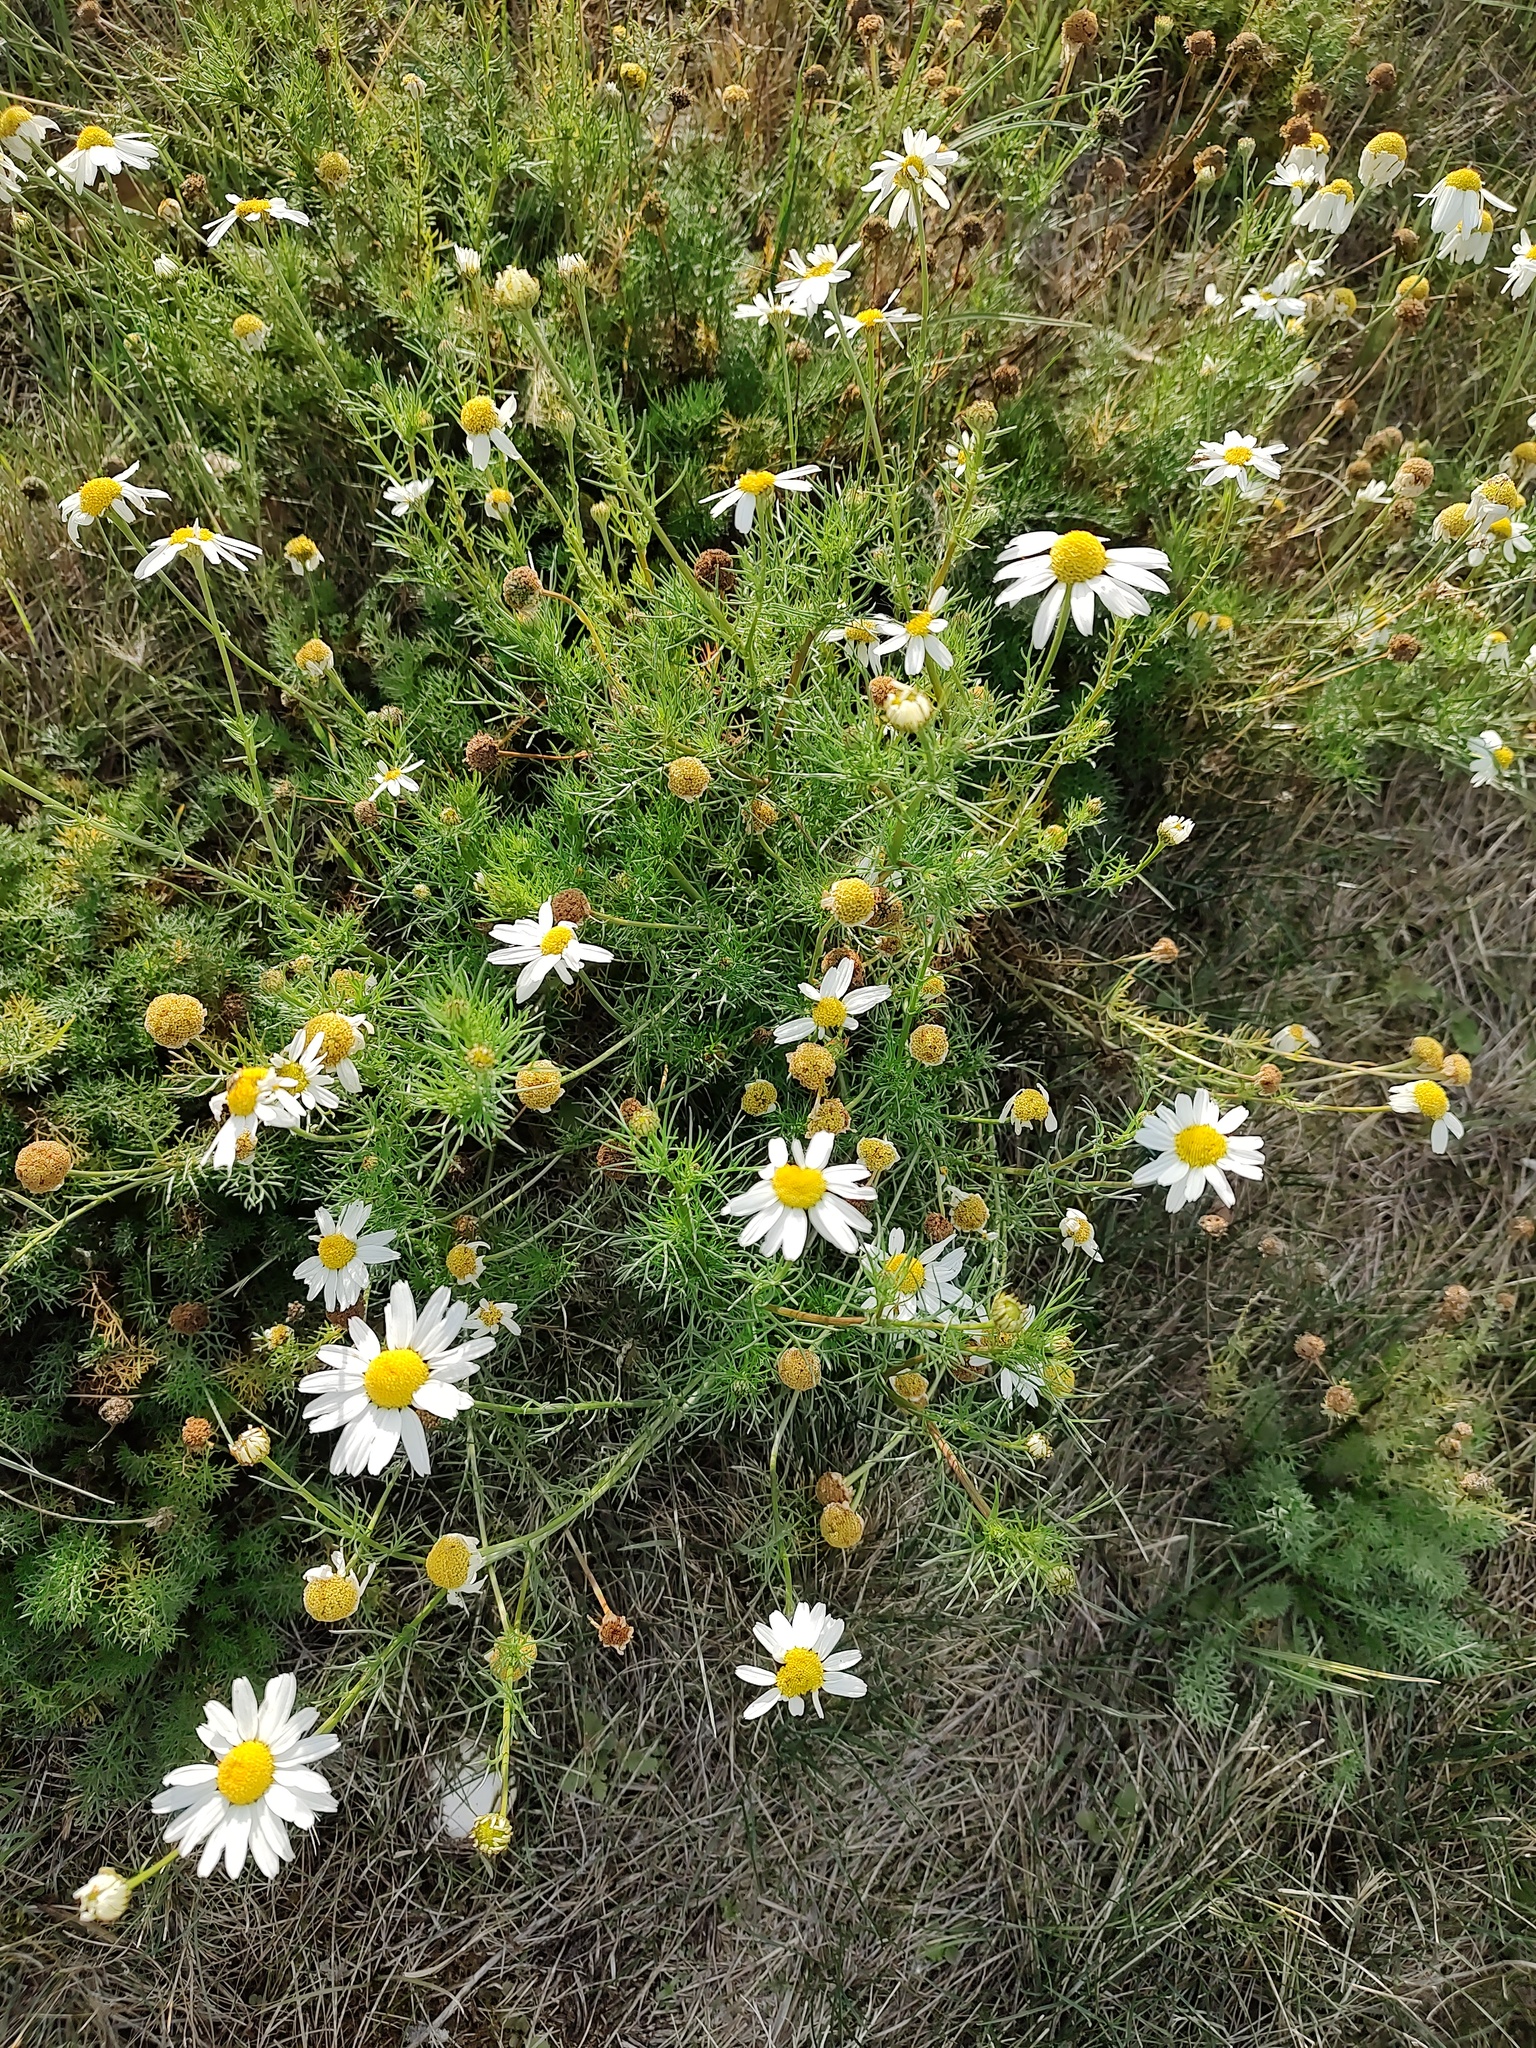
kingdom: Plantae
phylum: Tracheophyta
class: Magnoliopsida
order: Asterales
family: Asteraceae
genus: Tripleurospermum
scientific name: Tripleurospermum inodorum
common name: Scentless mayweed
